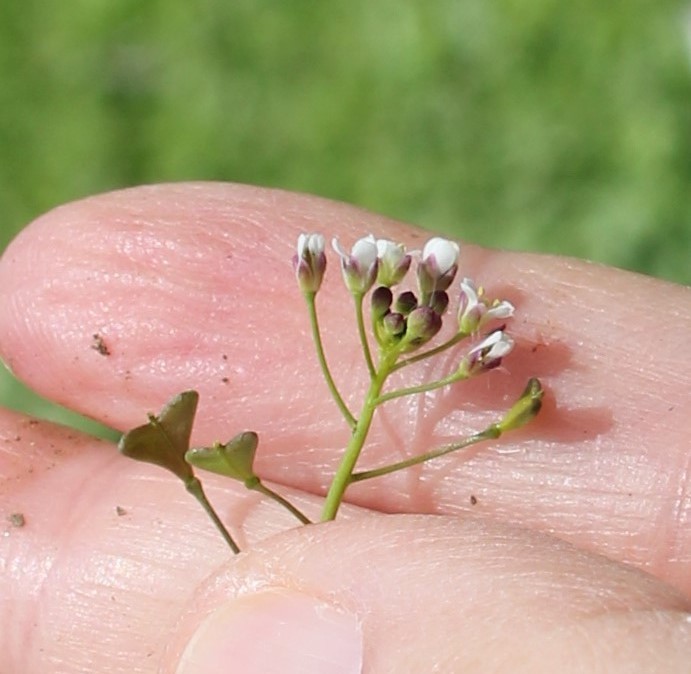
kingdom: Plantae
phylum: Tracheophyta
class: Magnoliopsida
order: Brassicales
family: Brassicaceae
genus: Capsella
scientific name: Capsella bursa-pastoris
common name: Shepherd's purse
